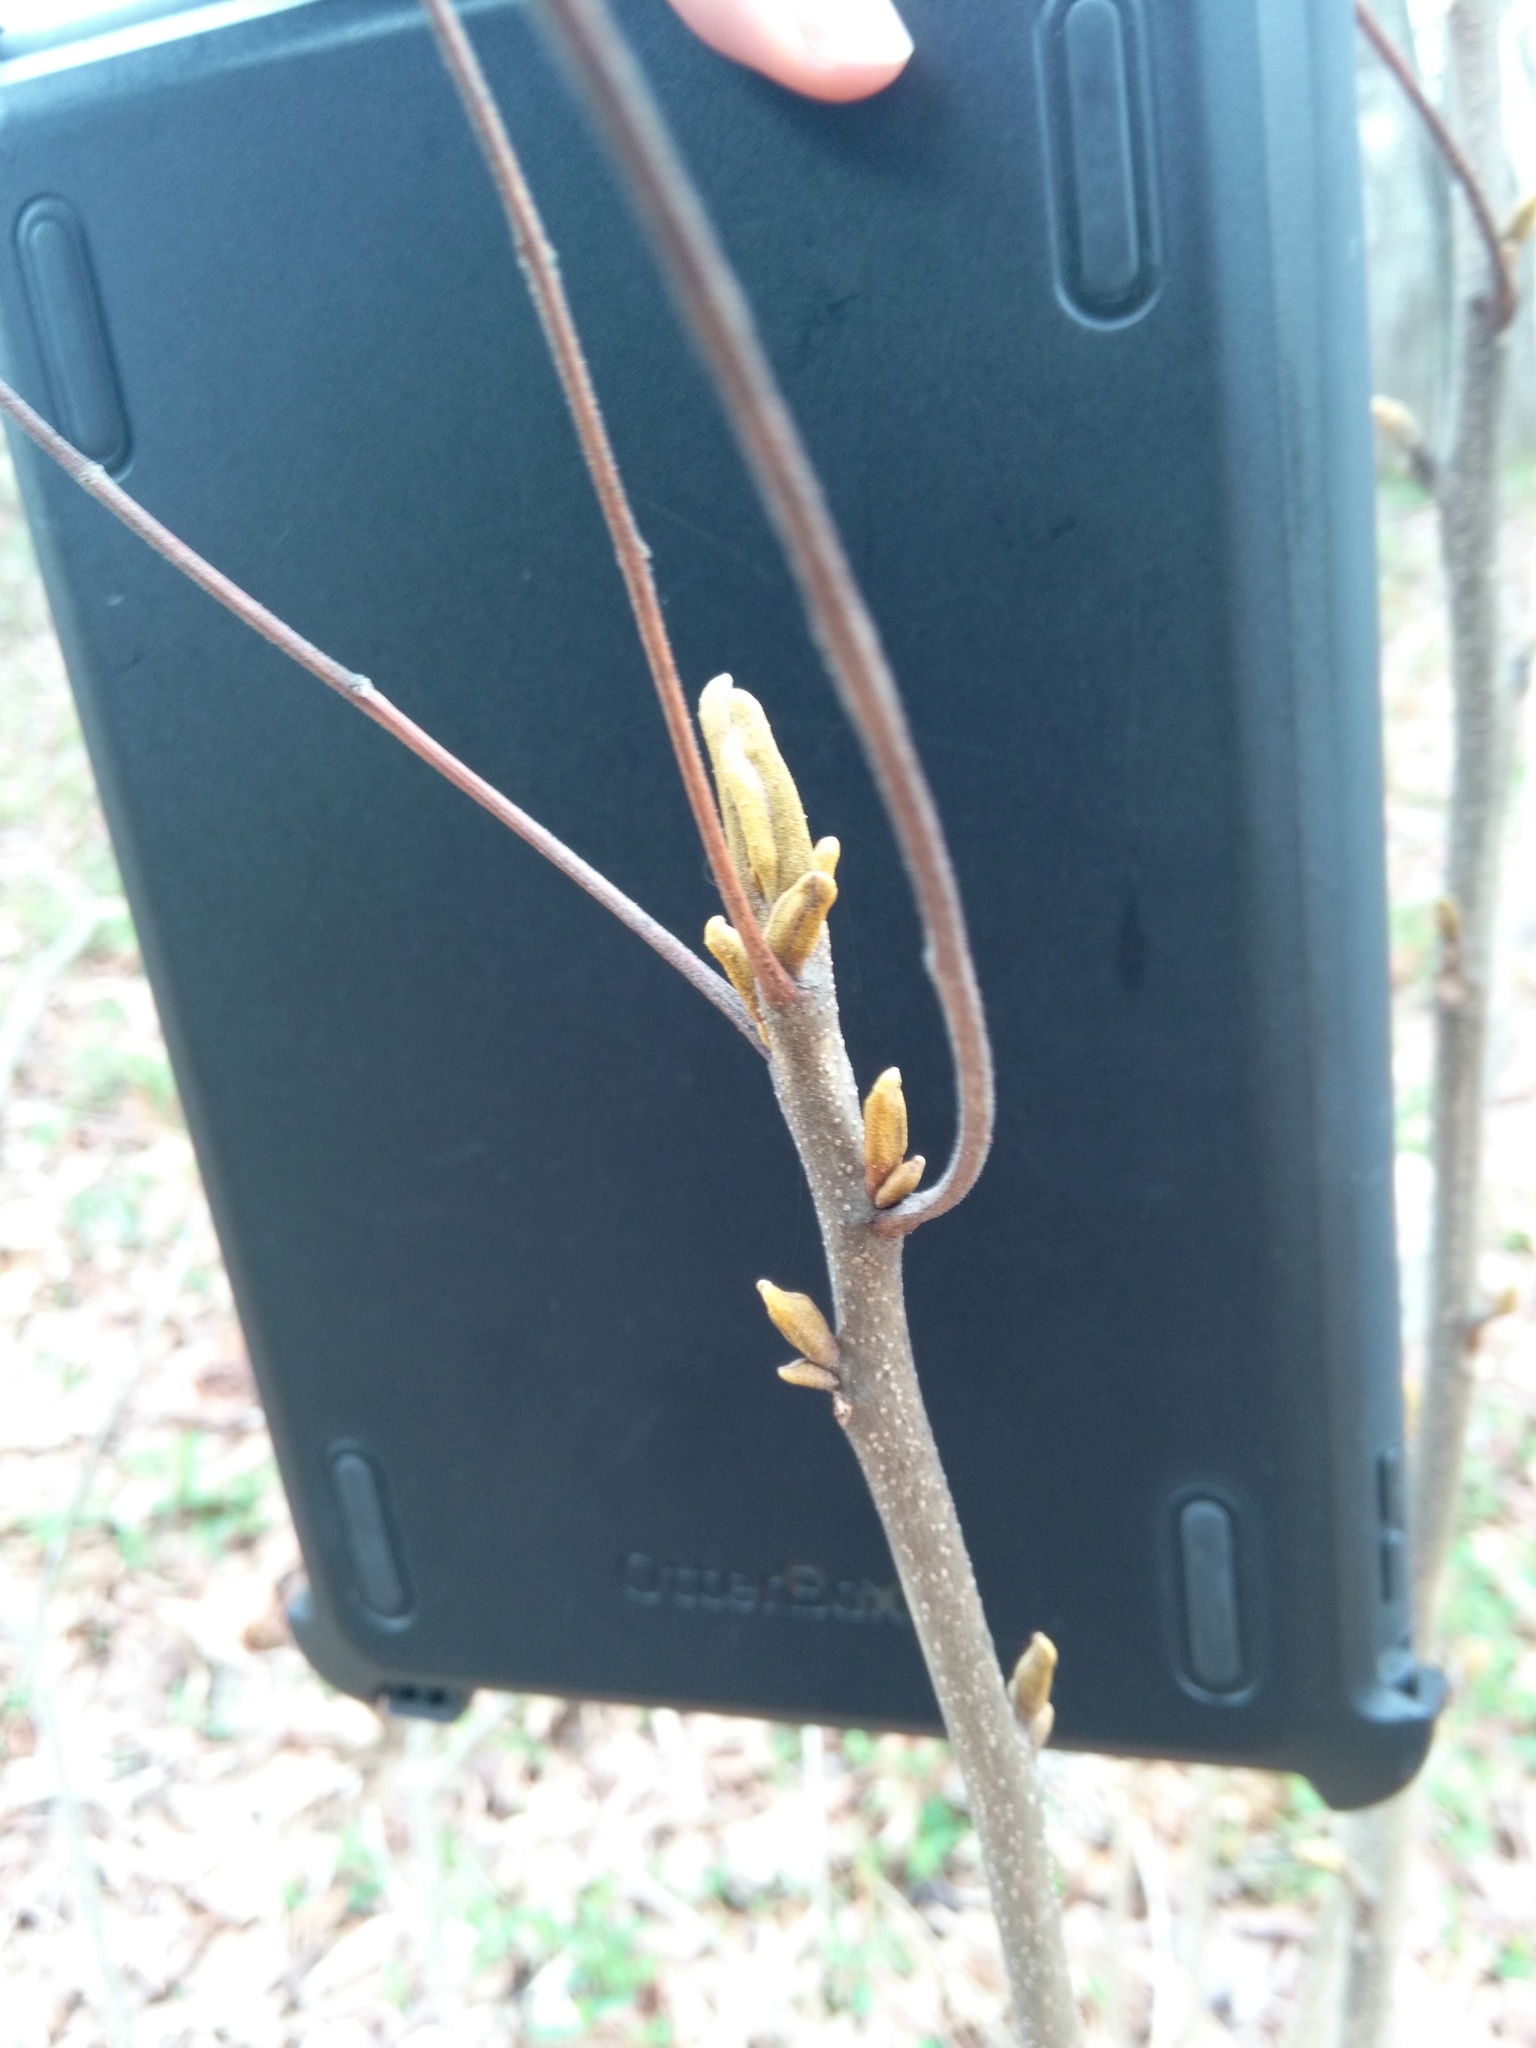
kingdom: Plantae
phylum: Tracheophyta
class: Magnoliopsida
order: Fagales
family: Juglandaceae
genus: Carya
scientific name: Carya cordiformis
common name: Bitternut hickory
